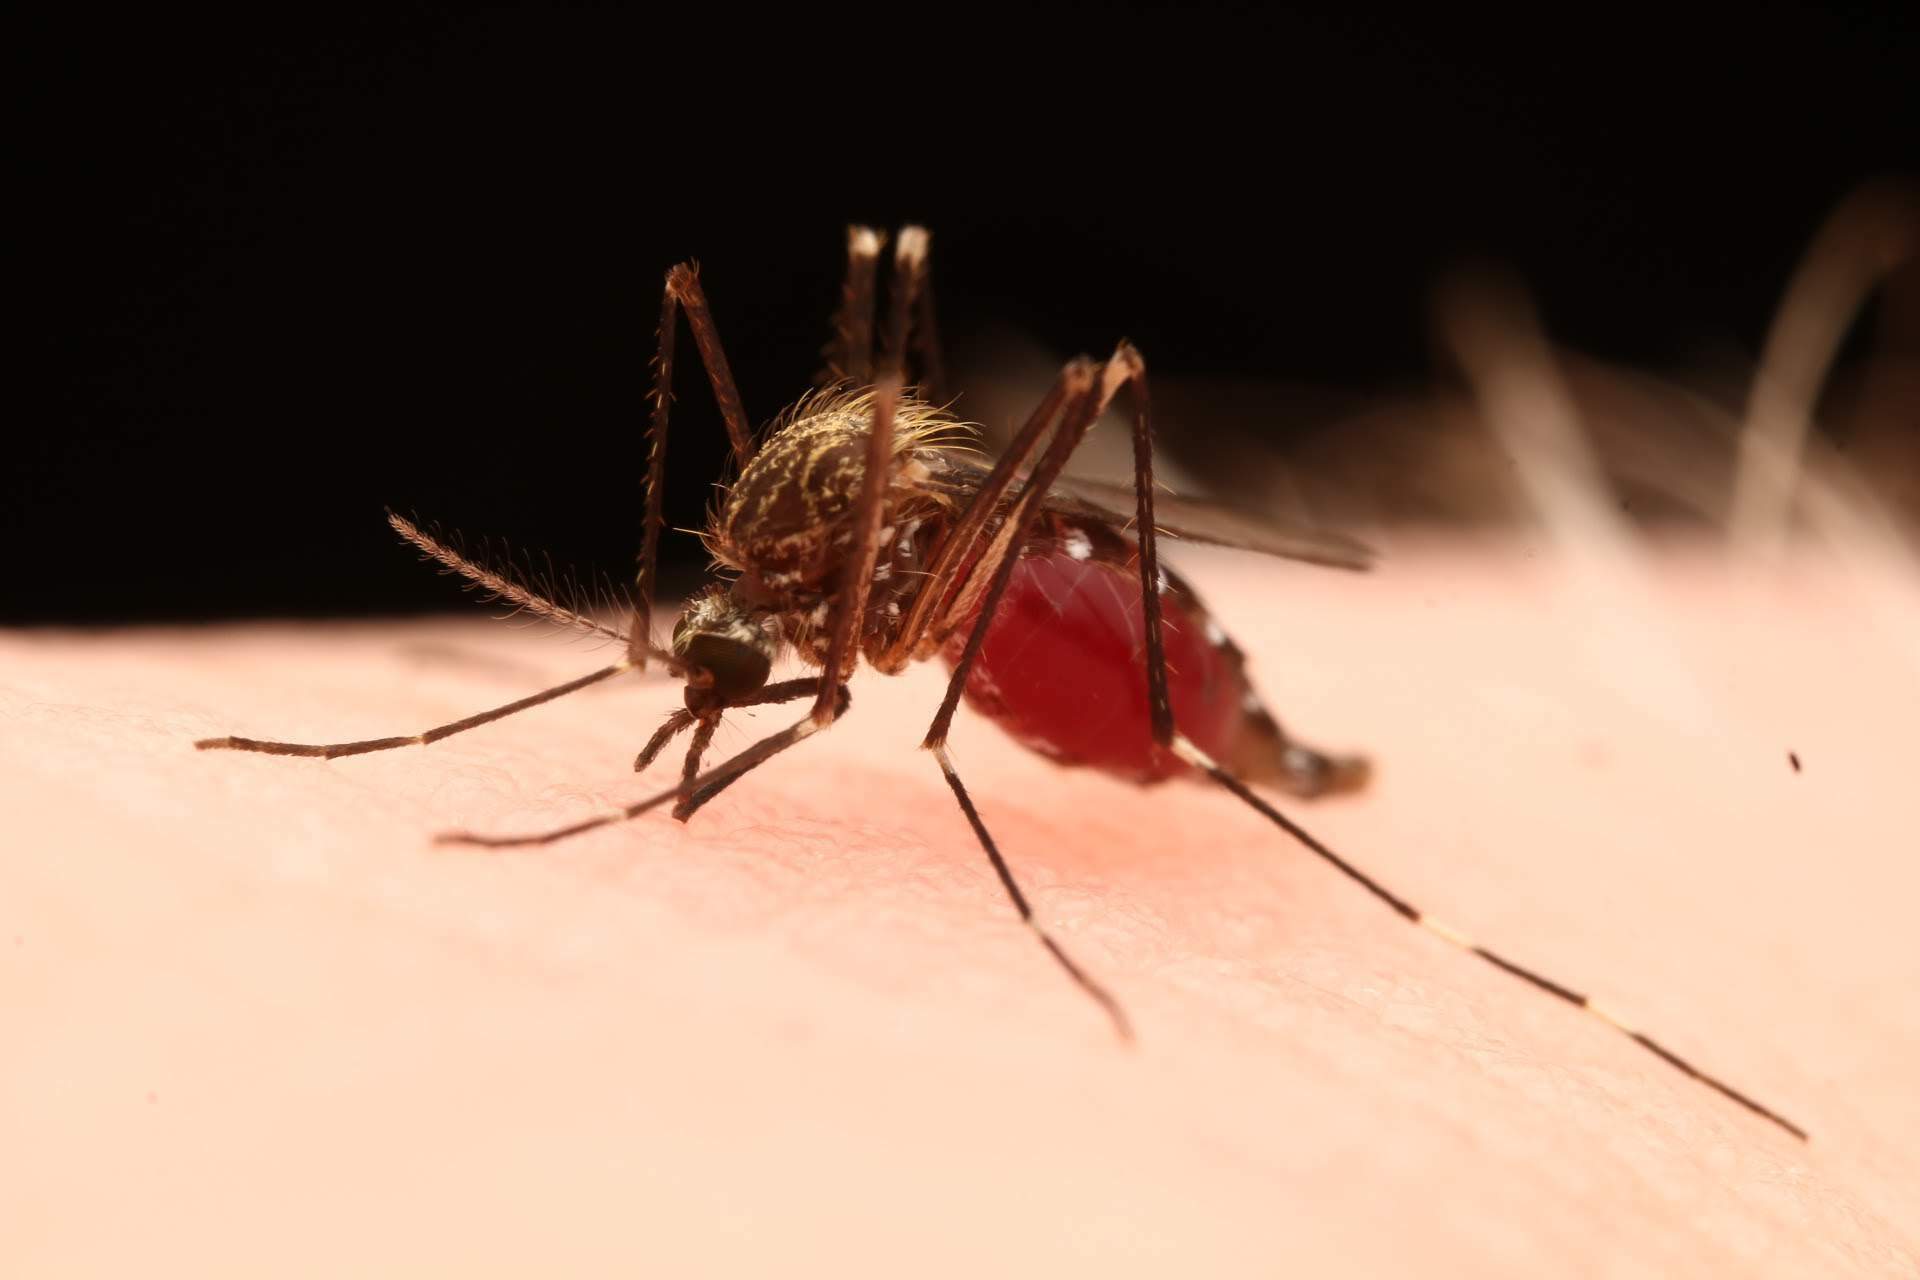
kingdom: Animalia
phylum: Arthropoda
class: Insecta
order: Diptera
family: Culicidae
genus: Aedes
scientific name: Aedes japonicus
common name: Asian bush mosquito
